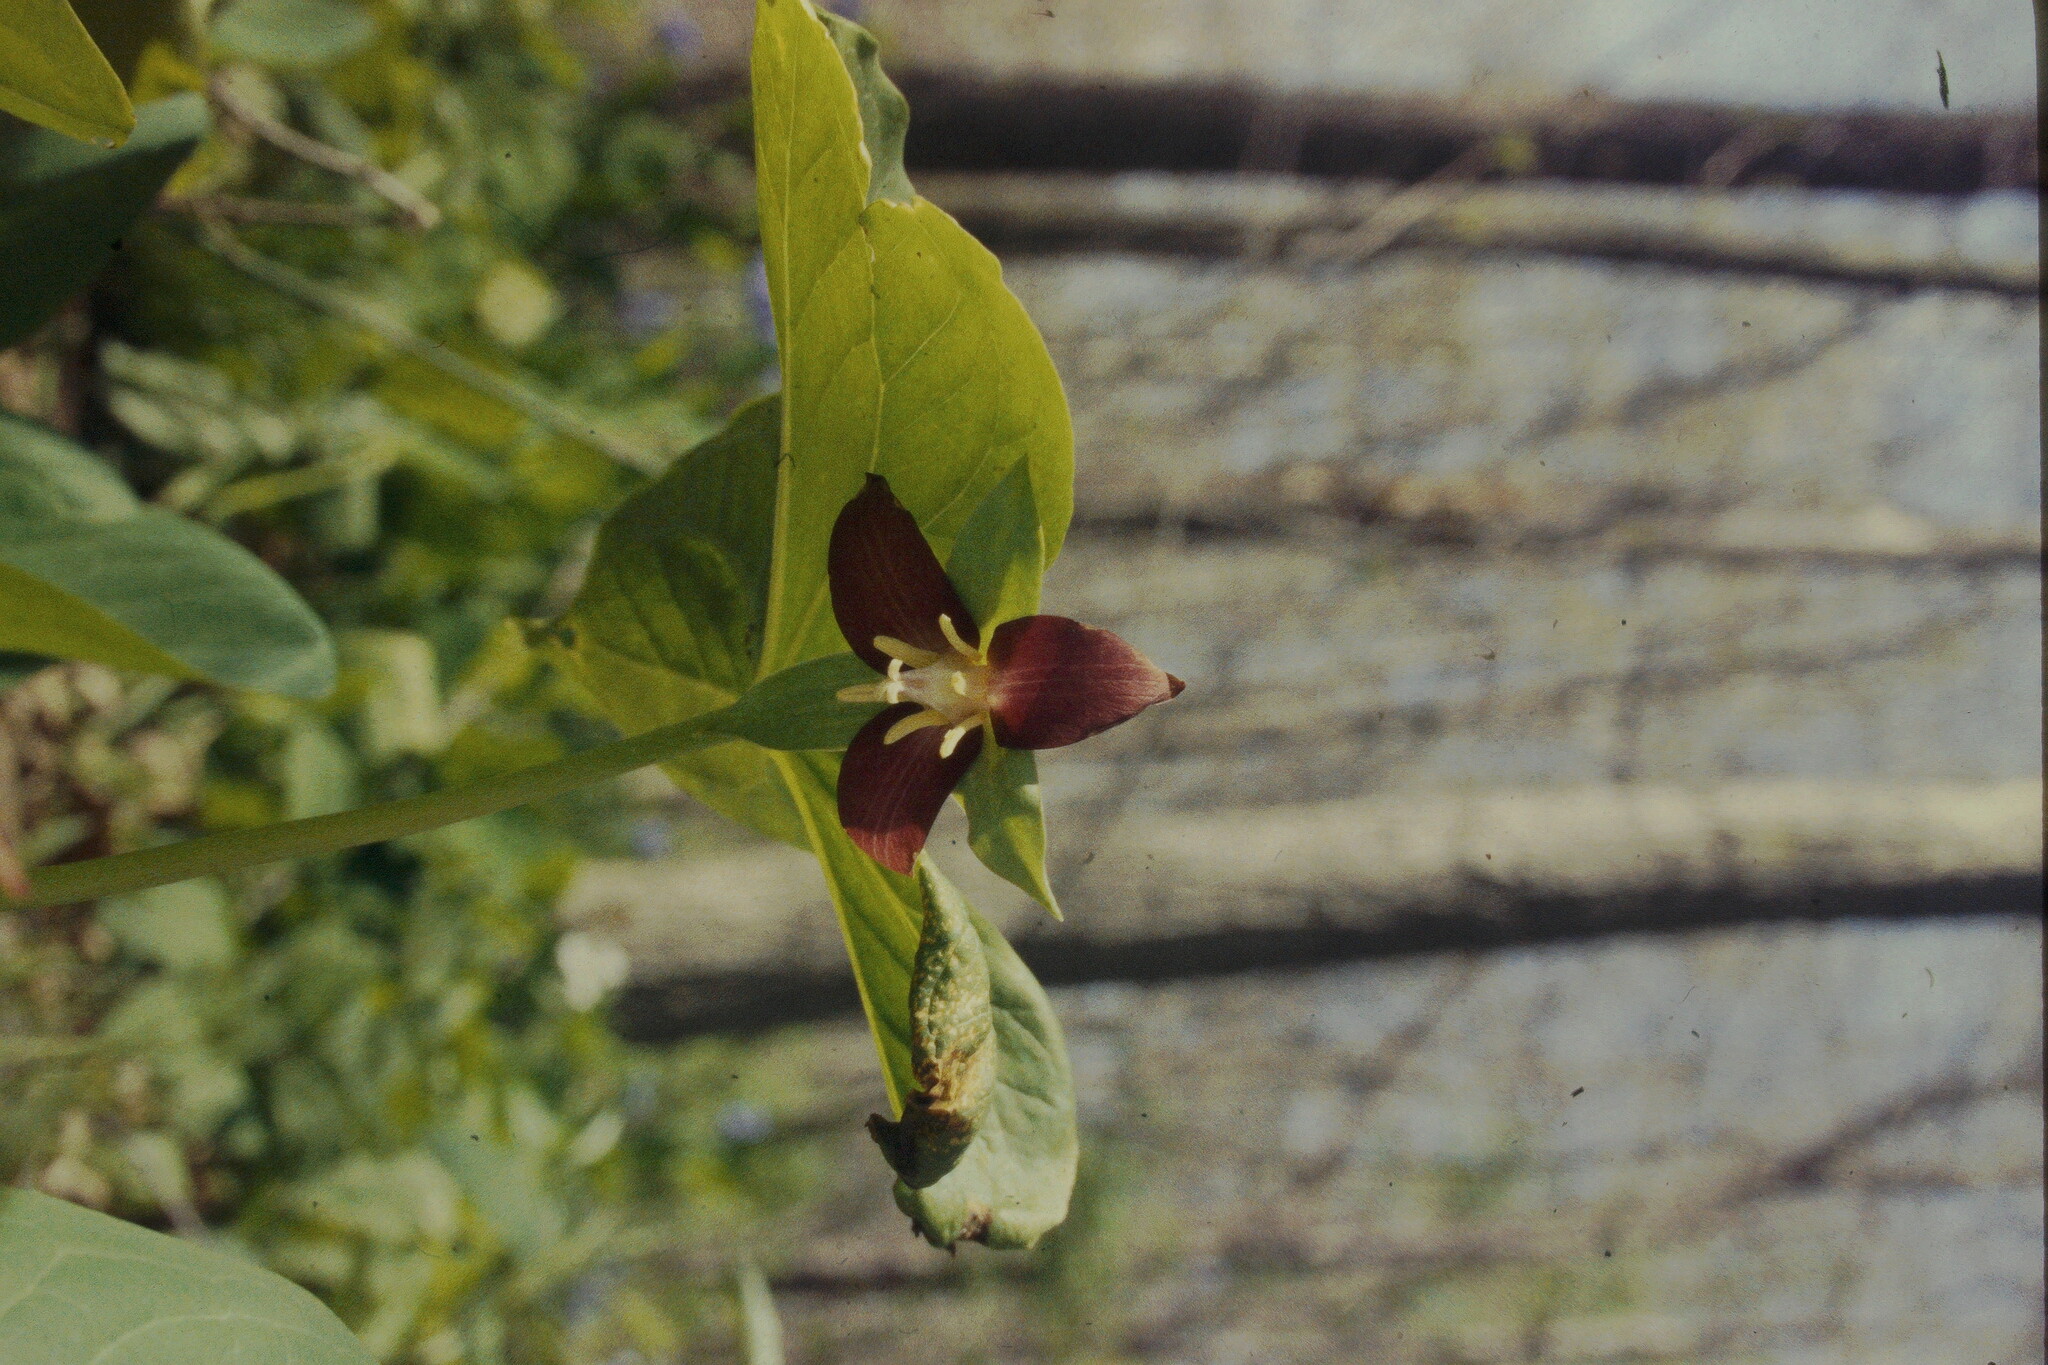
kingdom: Plantae
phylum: Tracheophyta
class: Liliopsida
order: Liliales
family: Melanthiaceae
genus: Trillium
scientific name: Trillium flexipes
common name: Drooping trillium
